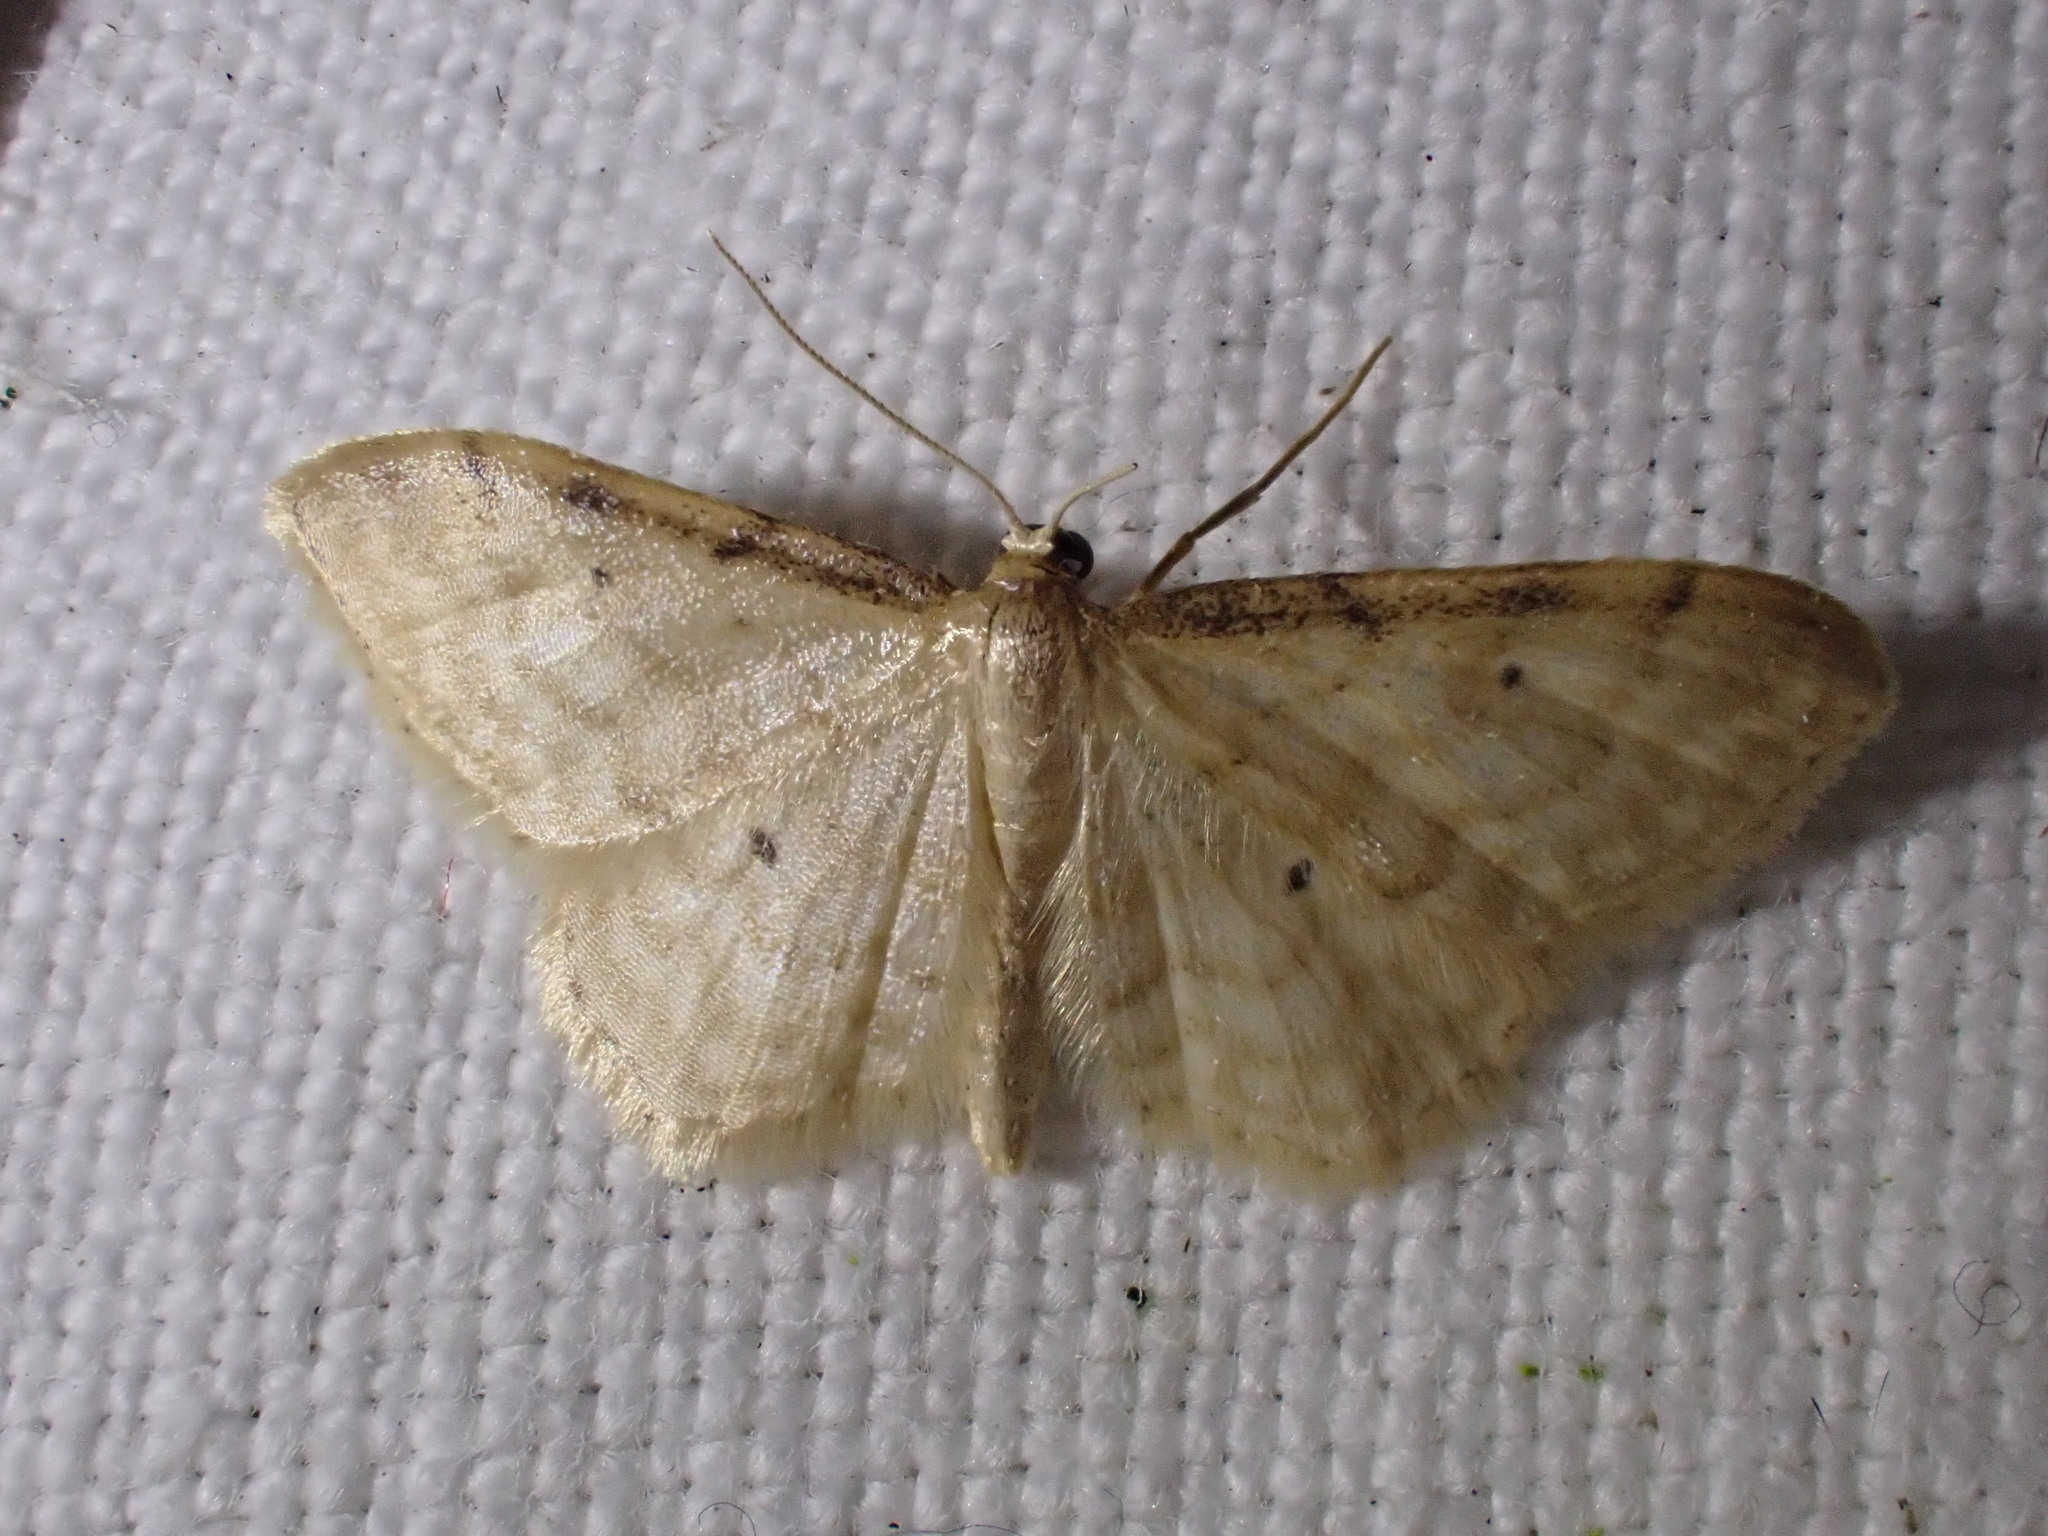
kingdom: Animalia
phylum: Arthropoda
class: Insecta
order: Lepidoptera
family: Geometridae
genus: Idaea
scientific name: Idaea fuscovenosa
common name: Dwarf cream wave
